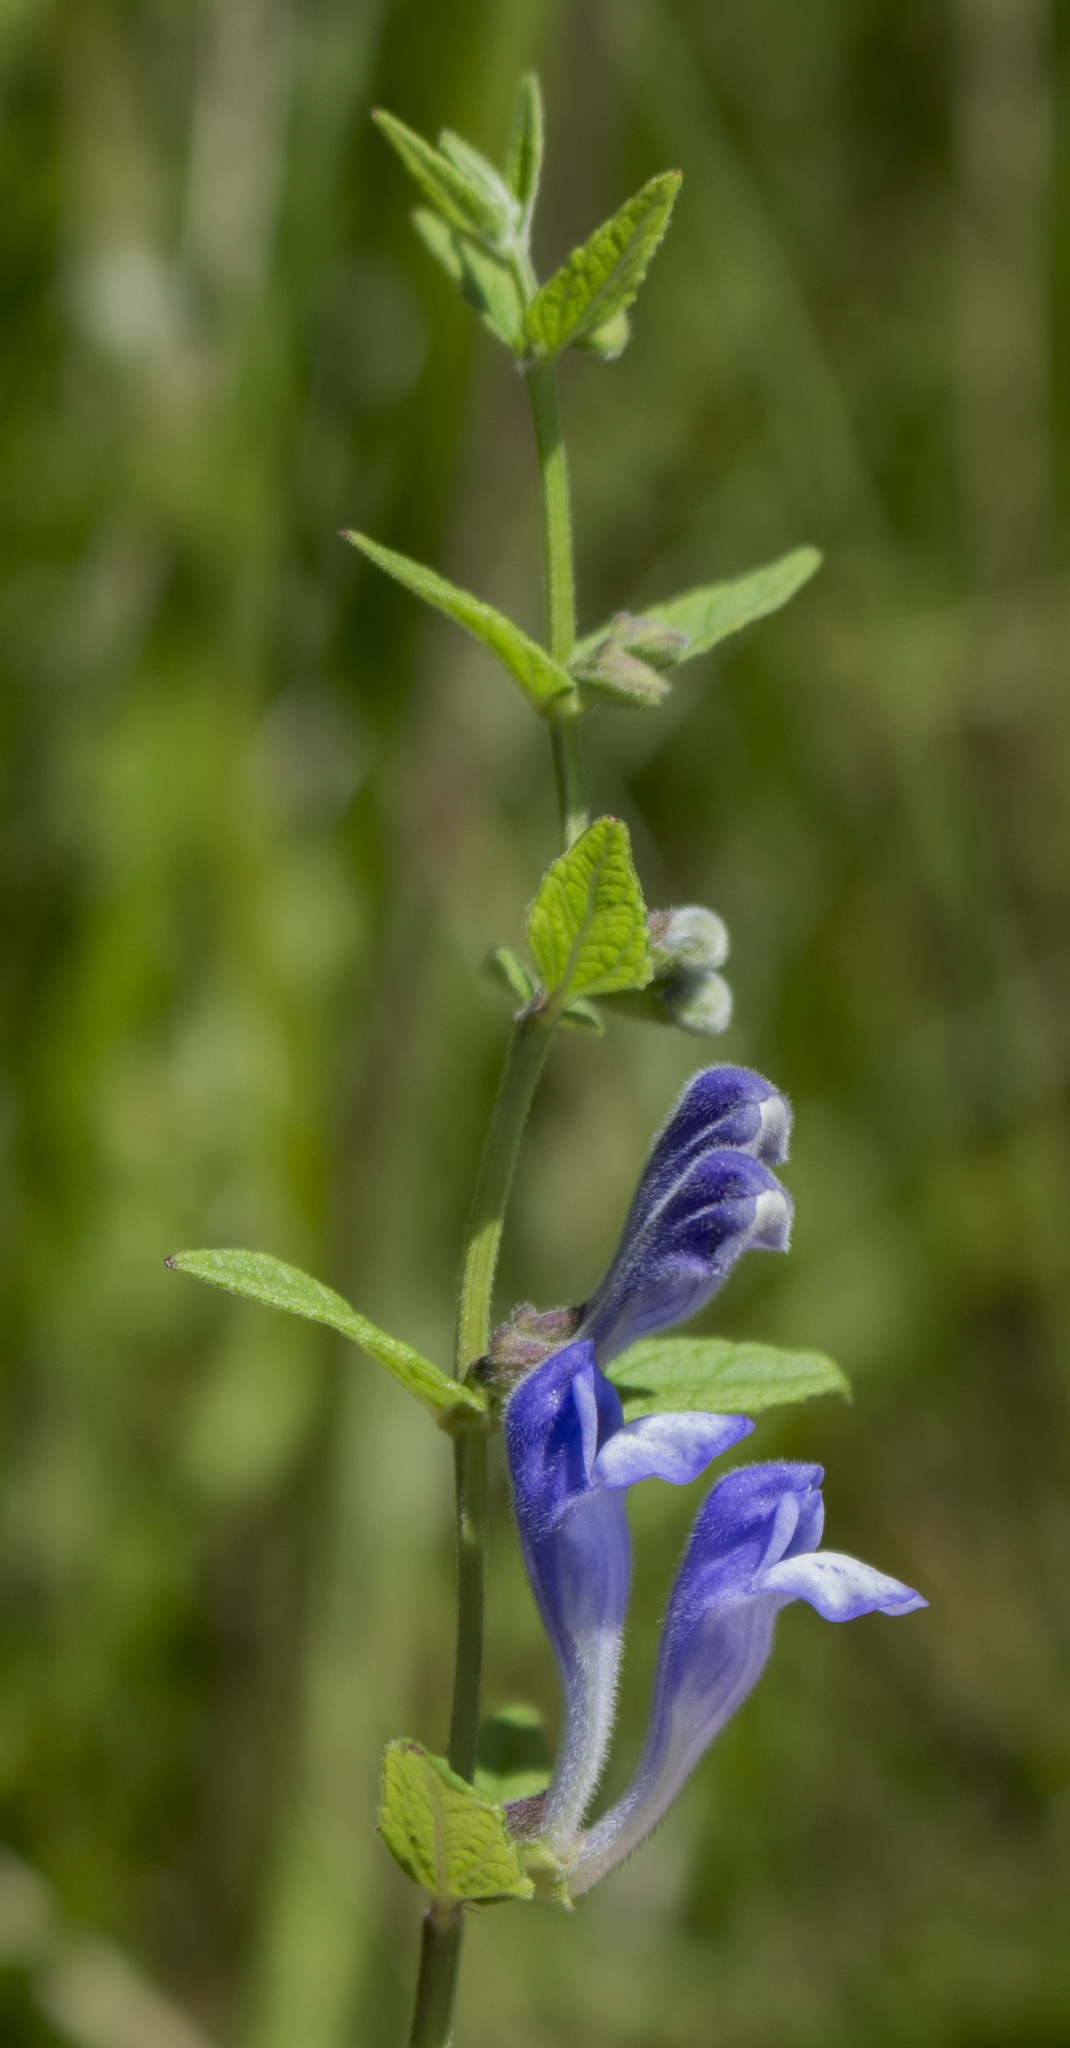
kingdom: Plantae
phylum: Tracheophyta
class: Magnoliopsida
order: Lamiales
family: Lamiaceae
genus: Scutellaria
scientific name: Scutellaria galericulata
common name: Skullcap
